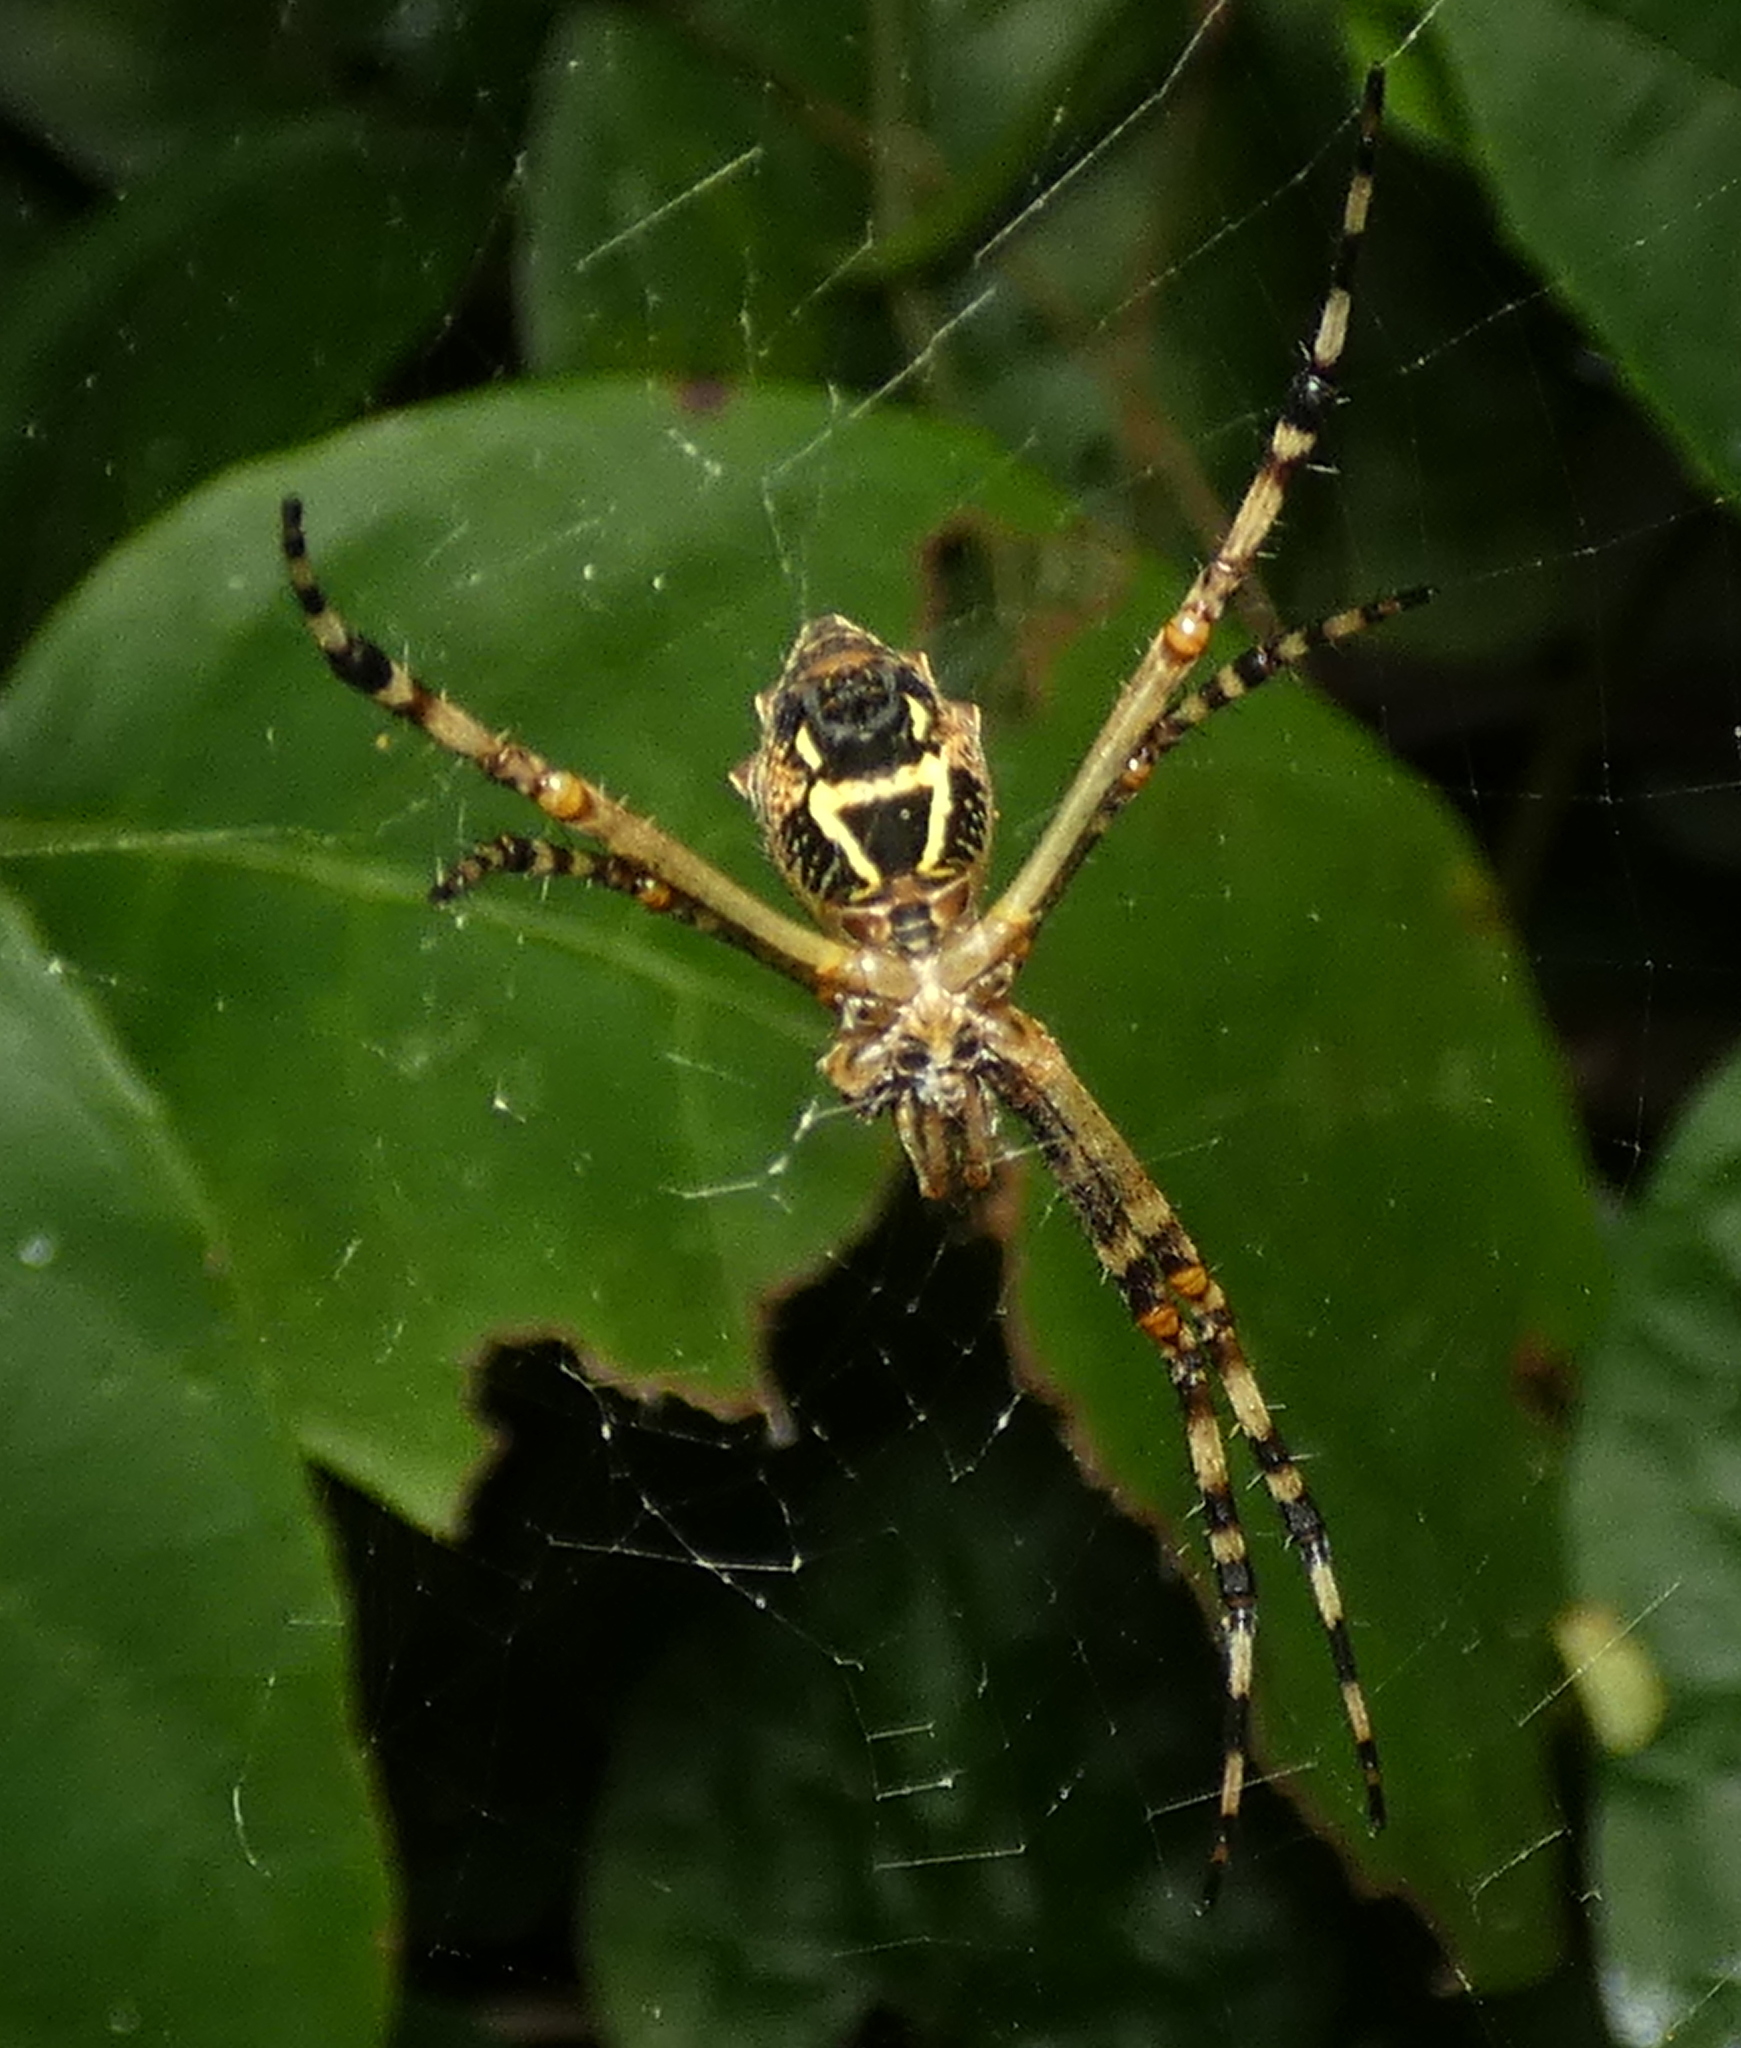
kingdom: Animalia
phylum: Arthropoda
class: Arachnida
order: Araneae
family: Araneidae
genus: Argiope
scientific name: Argiope argentata
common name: Orb weavers
